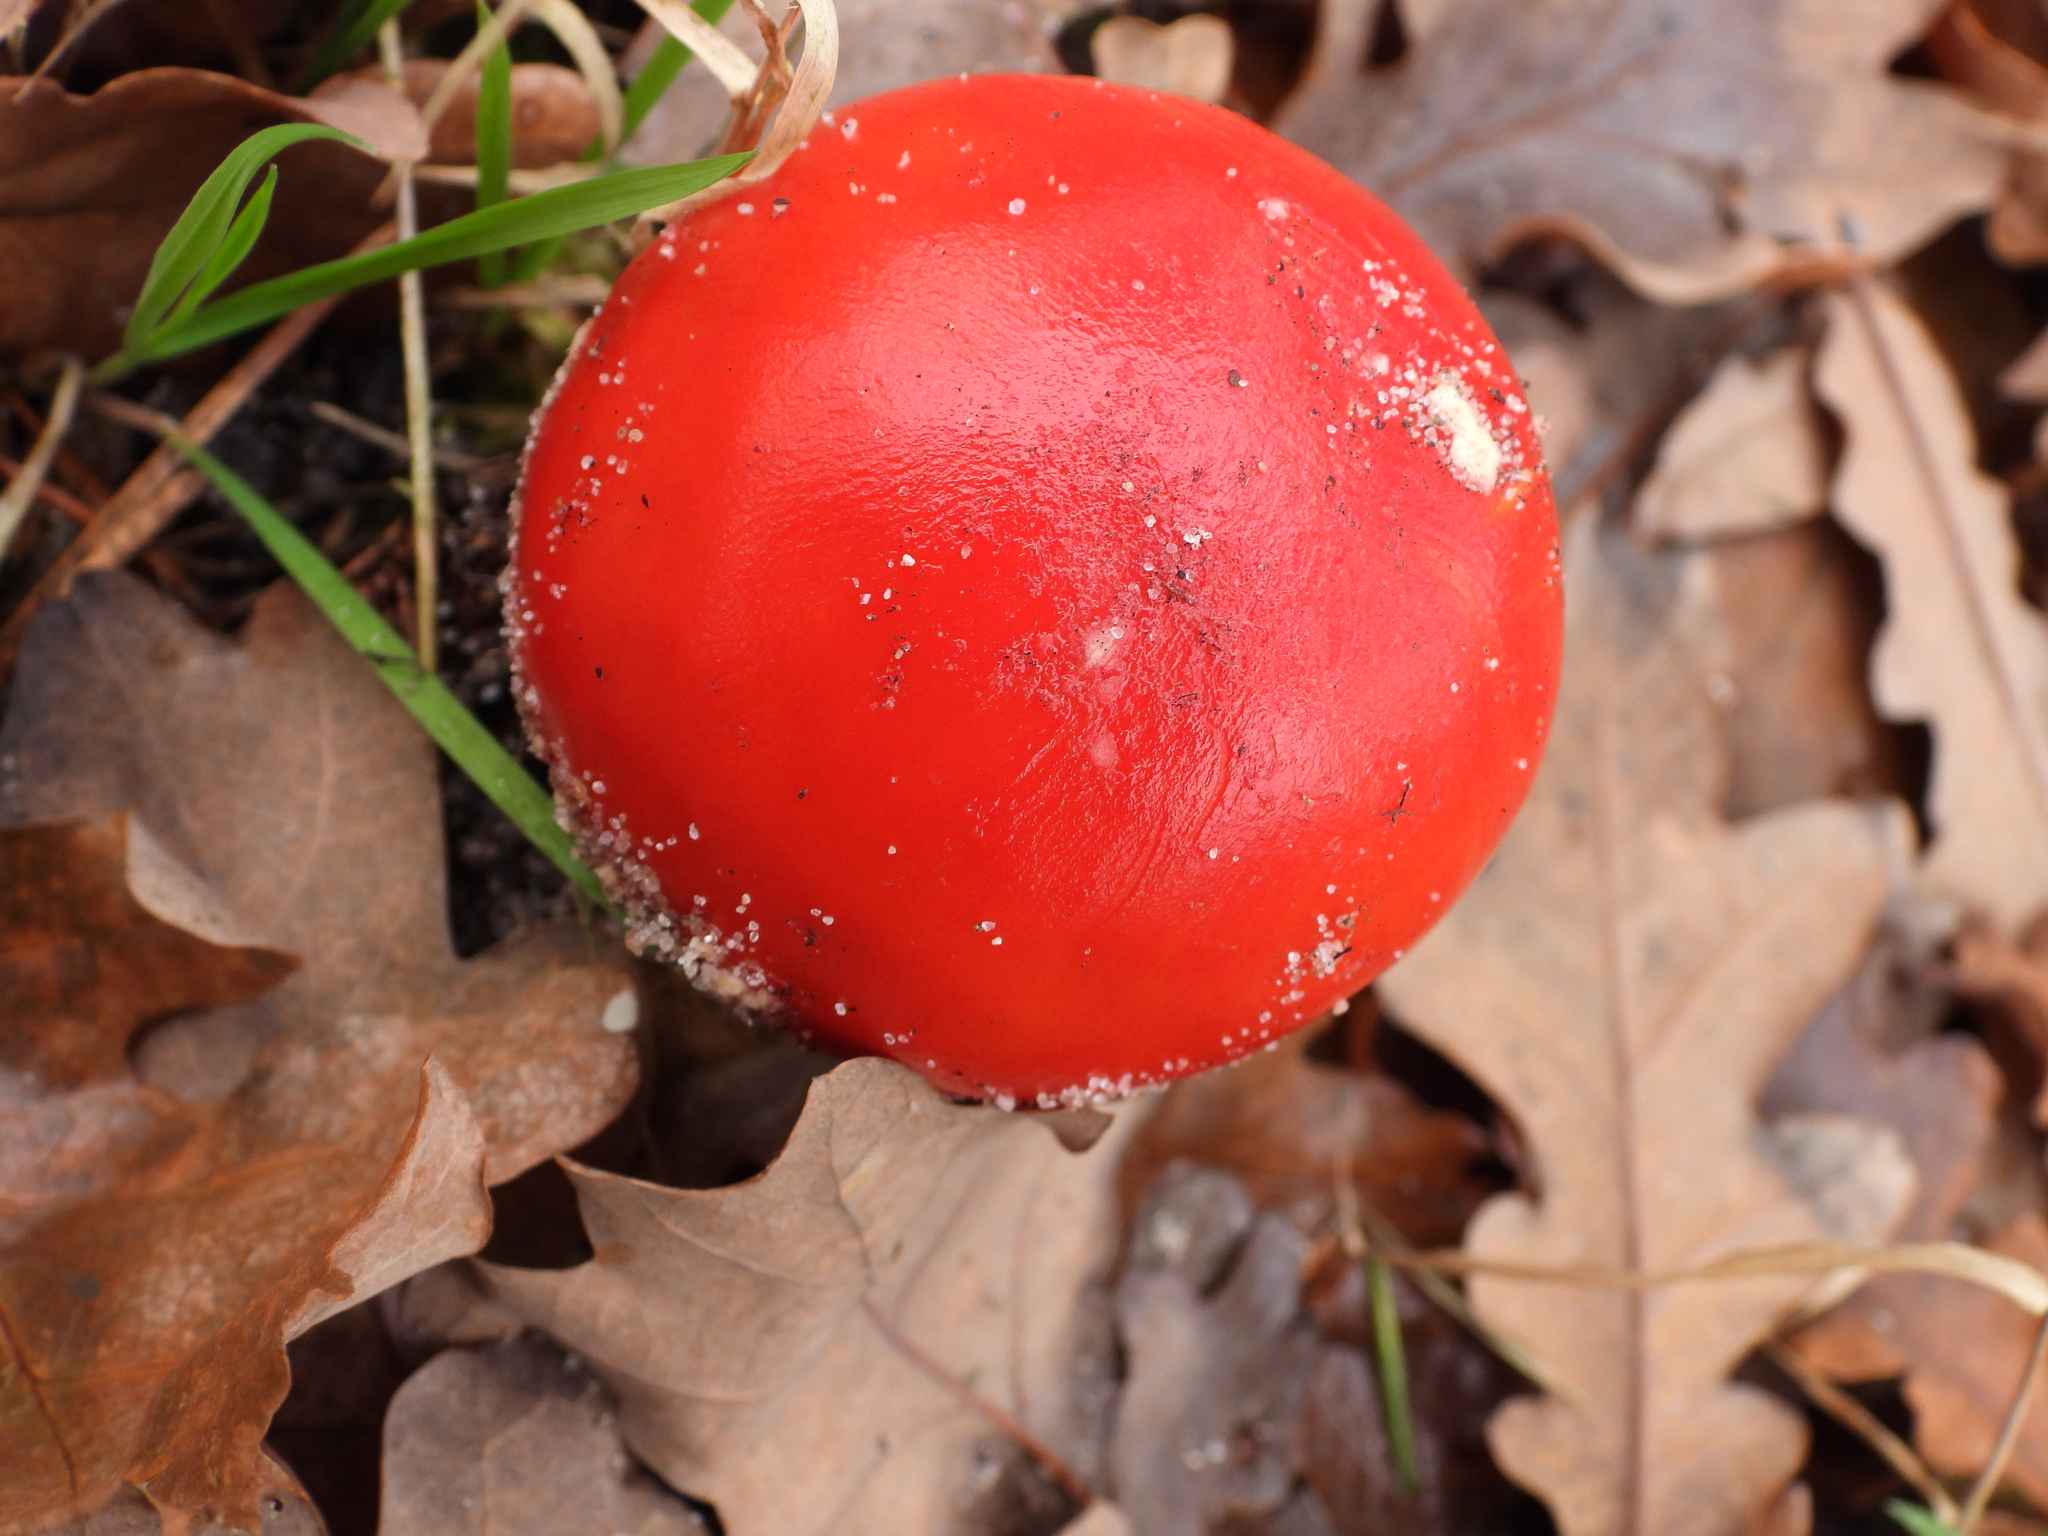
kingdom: Fungi
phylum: Basidiomycota
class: Agaricomycetes
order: Agaricales
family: Amanitaceae
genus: Amanita
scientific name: Amanita muscaria
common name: Fly agaric
